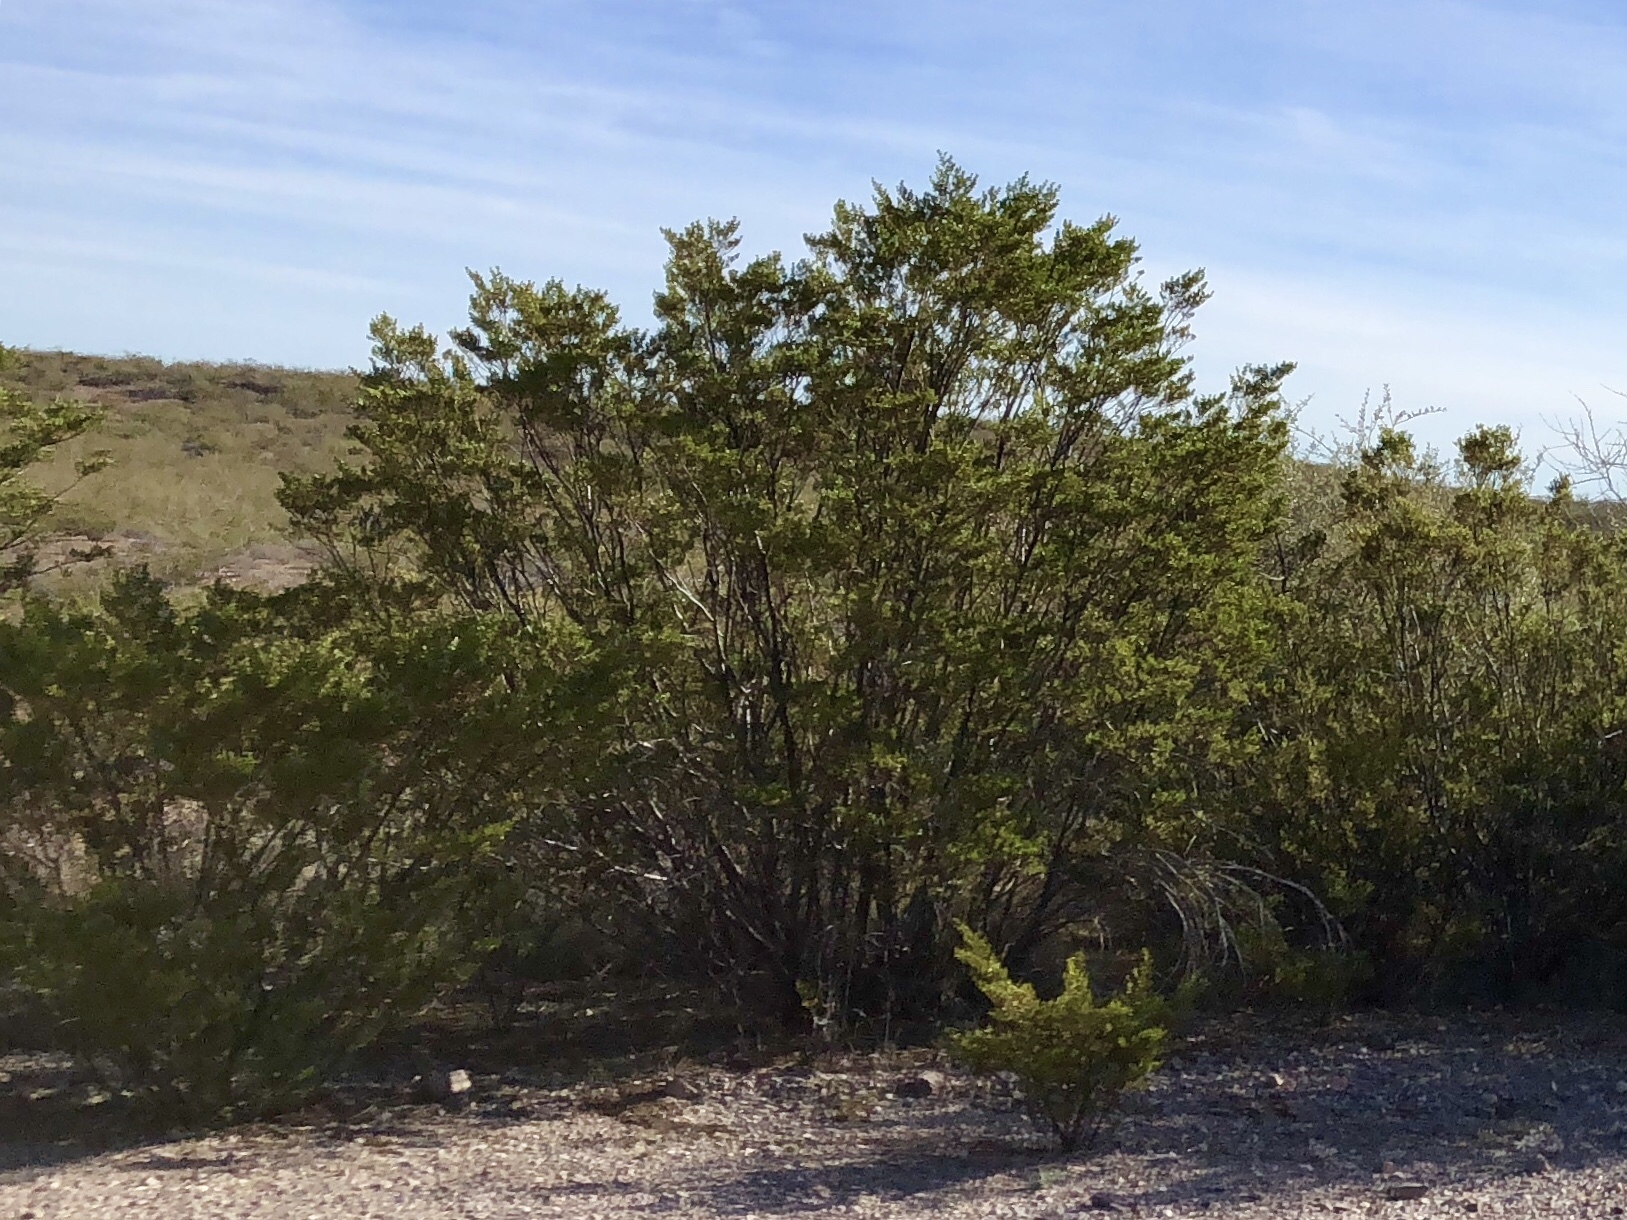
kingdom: Plantae
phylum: Tracheophyta
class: Magnoliopsida
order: Zygophyllales
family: Zygophyllaceae
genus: Larrea
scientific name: Larrea tridentata
